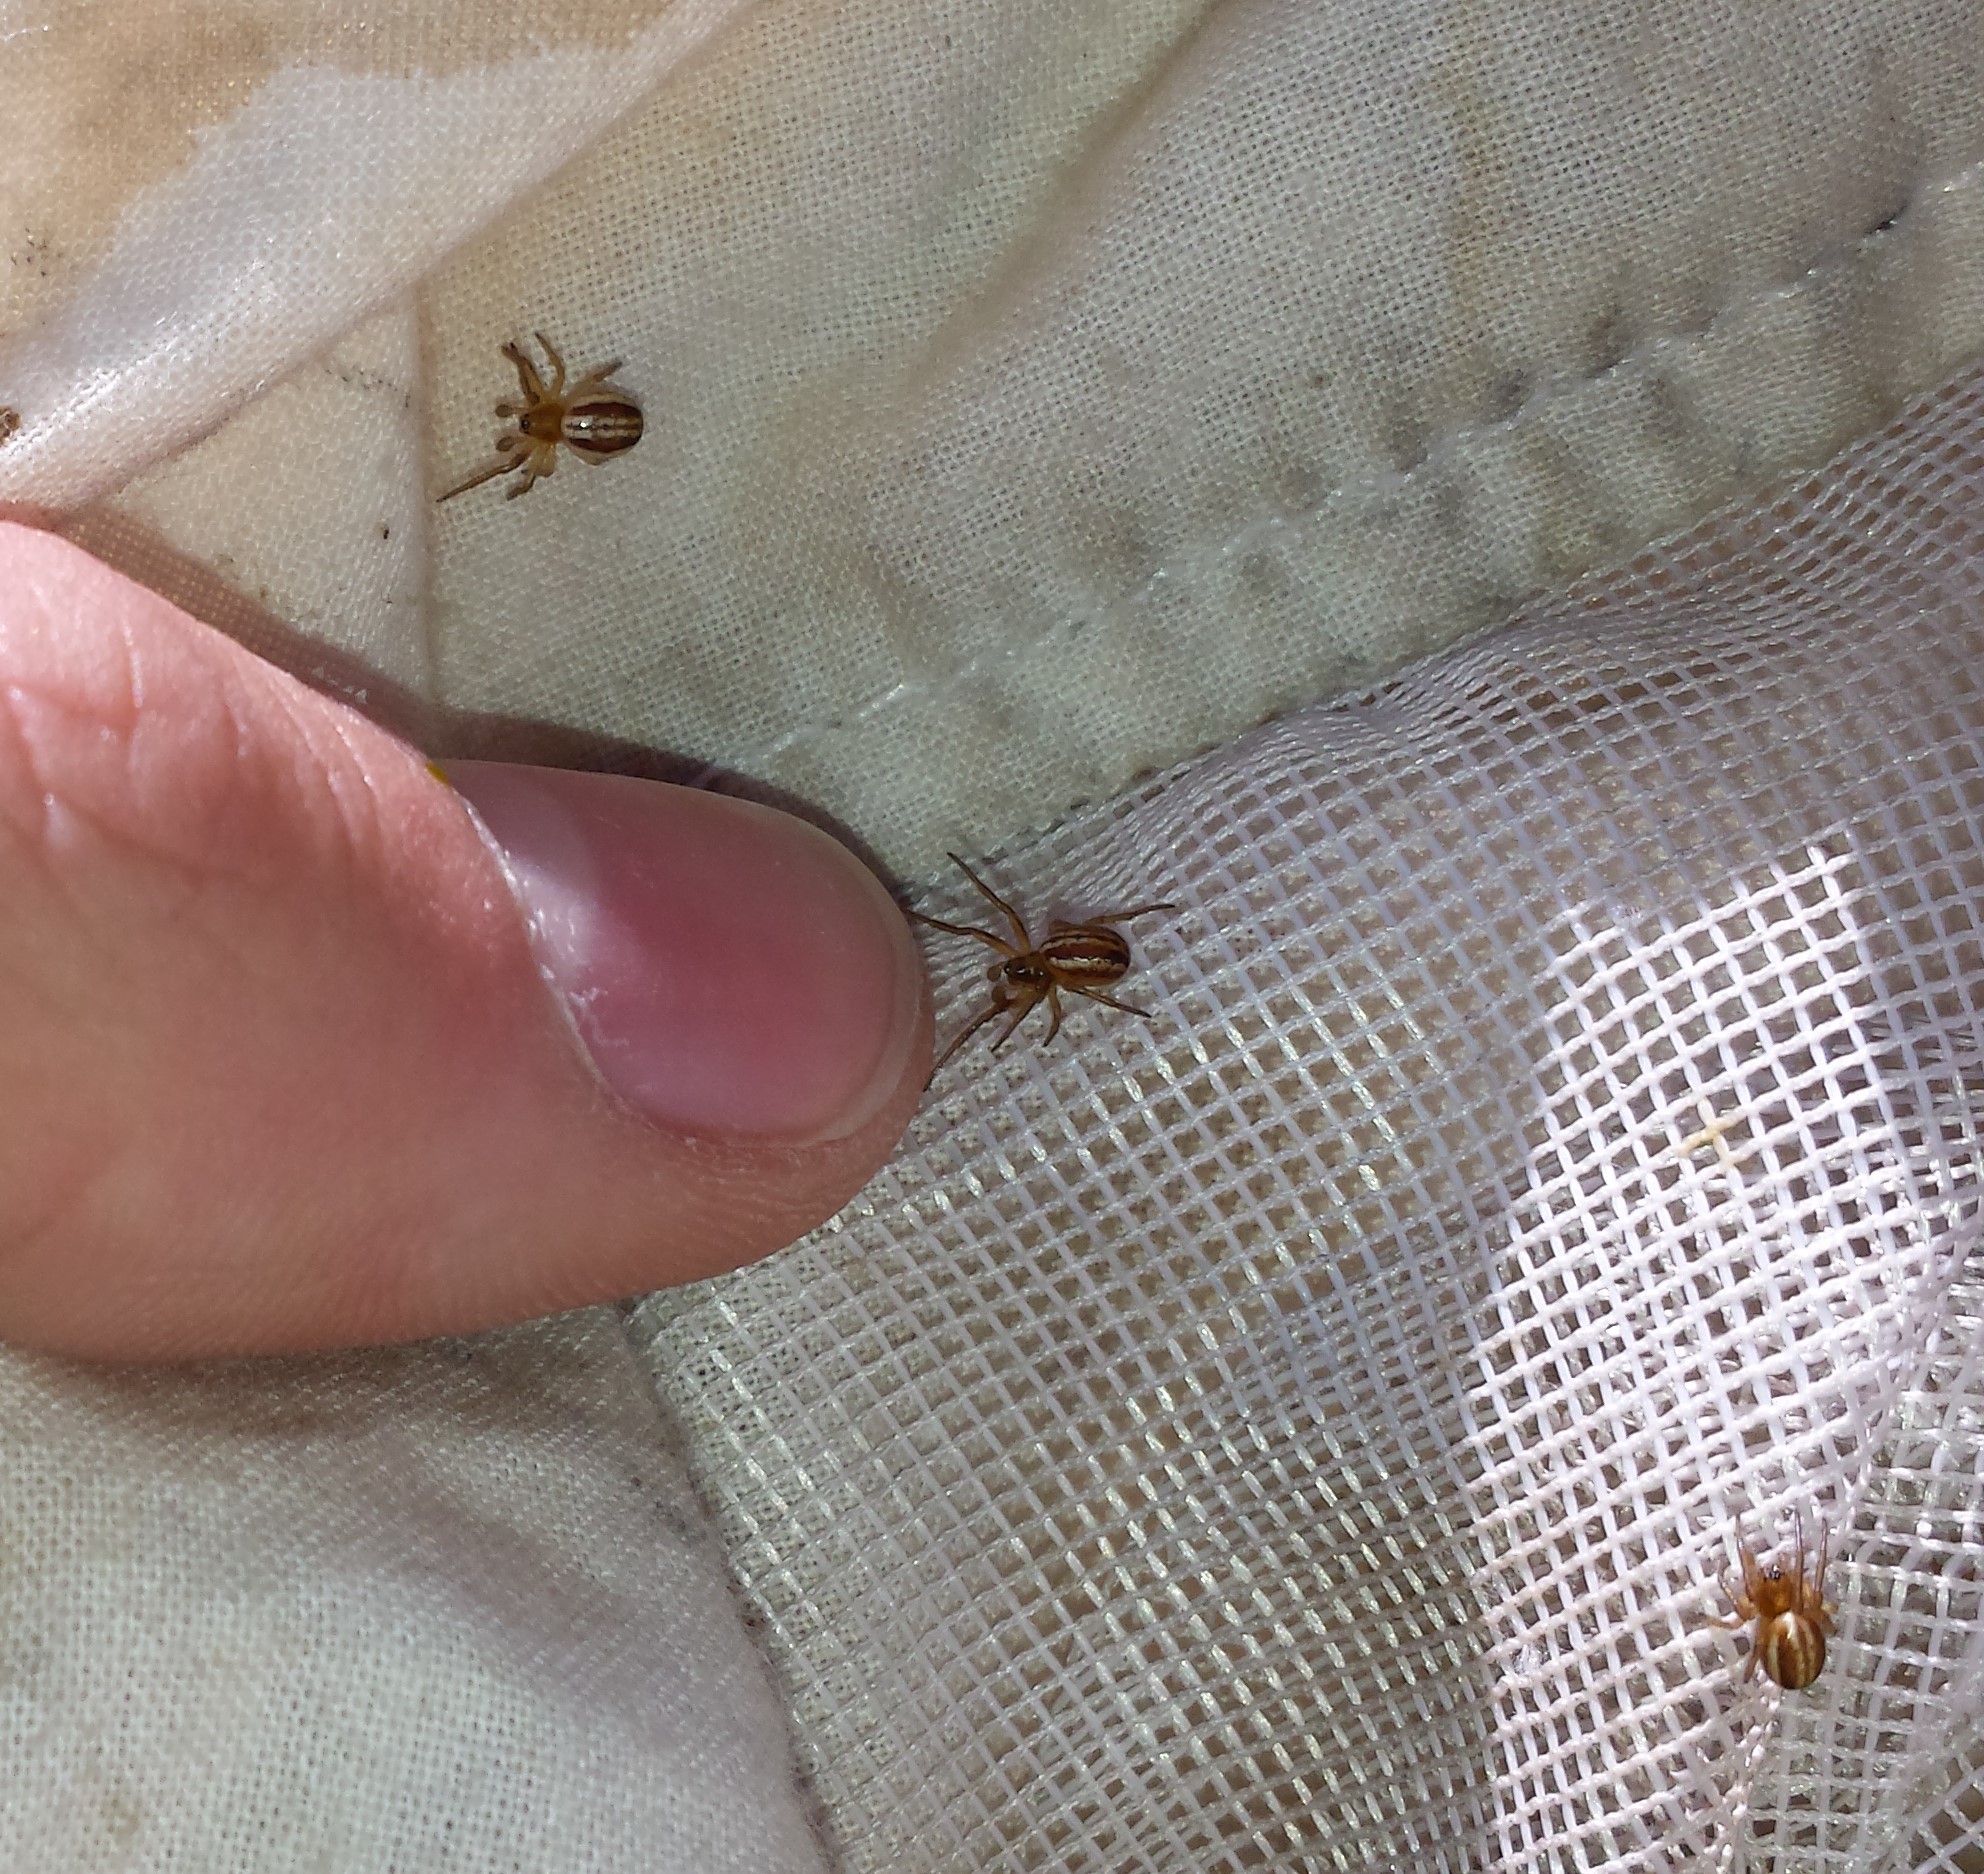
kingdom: Animalia
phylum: Arthropoda
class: Arachnida
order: Araneae
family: Araneidae
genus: Araneus
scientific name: Araneus pratensis
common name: Openfield orbweaver
